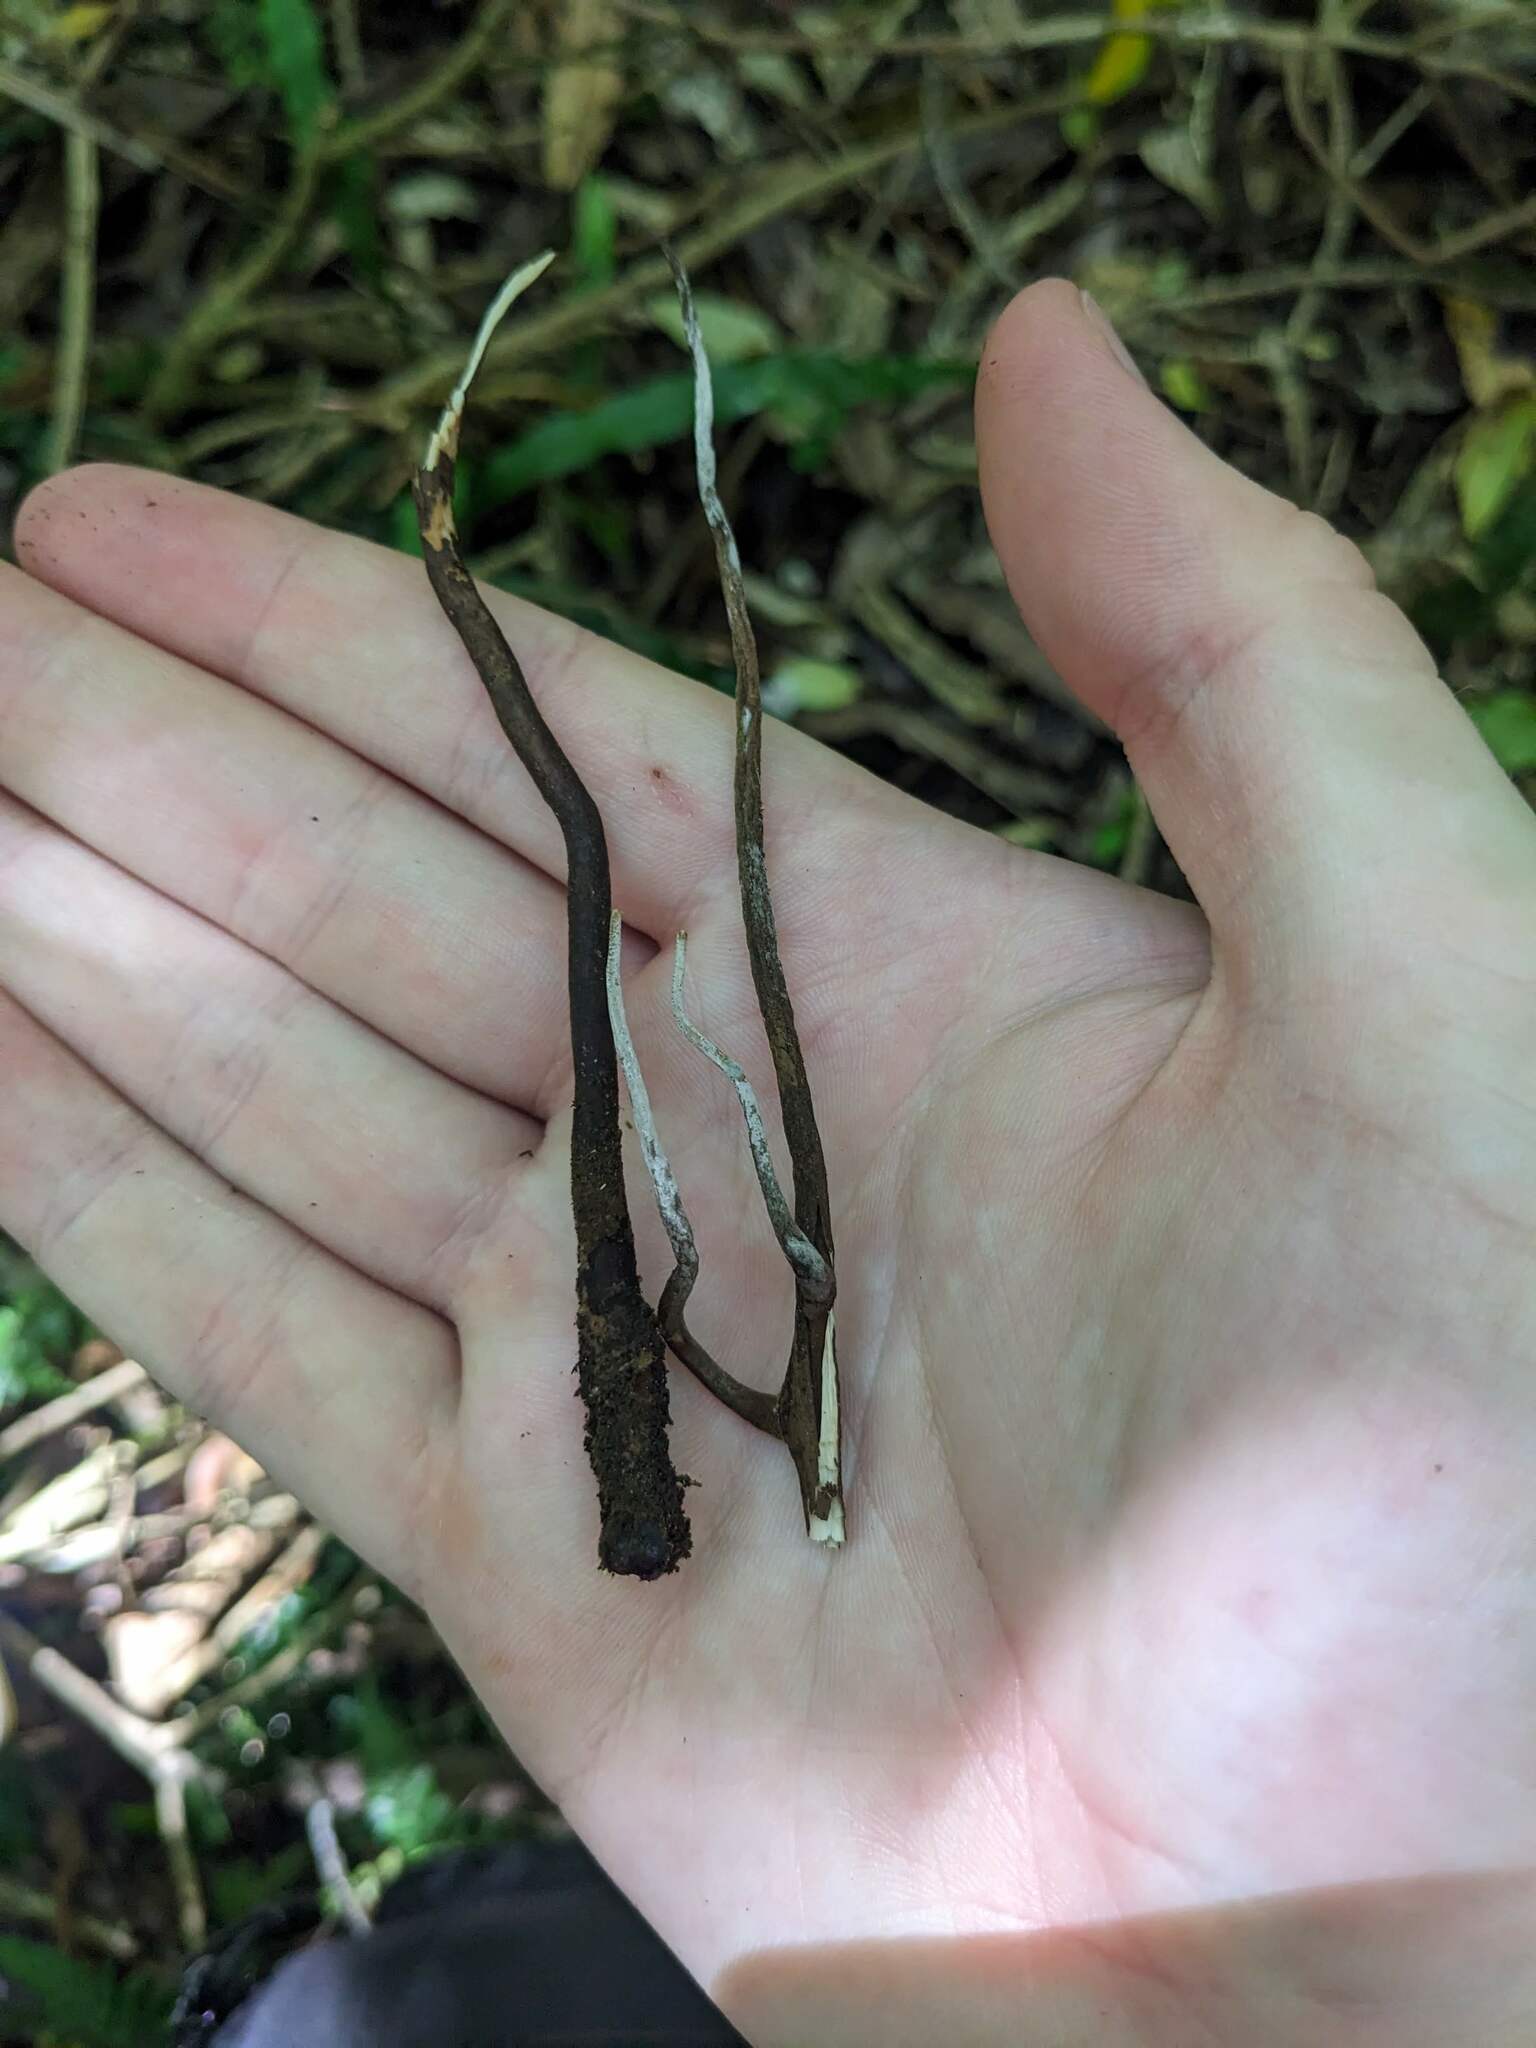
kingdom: Fungi
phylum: Ascomycota
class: Sordariomycetes
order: Hypocreales
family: Ophiocordycipitaceae
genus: Ophiocordyceps
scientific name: Ophiocordyceps robertsii
